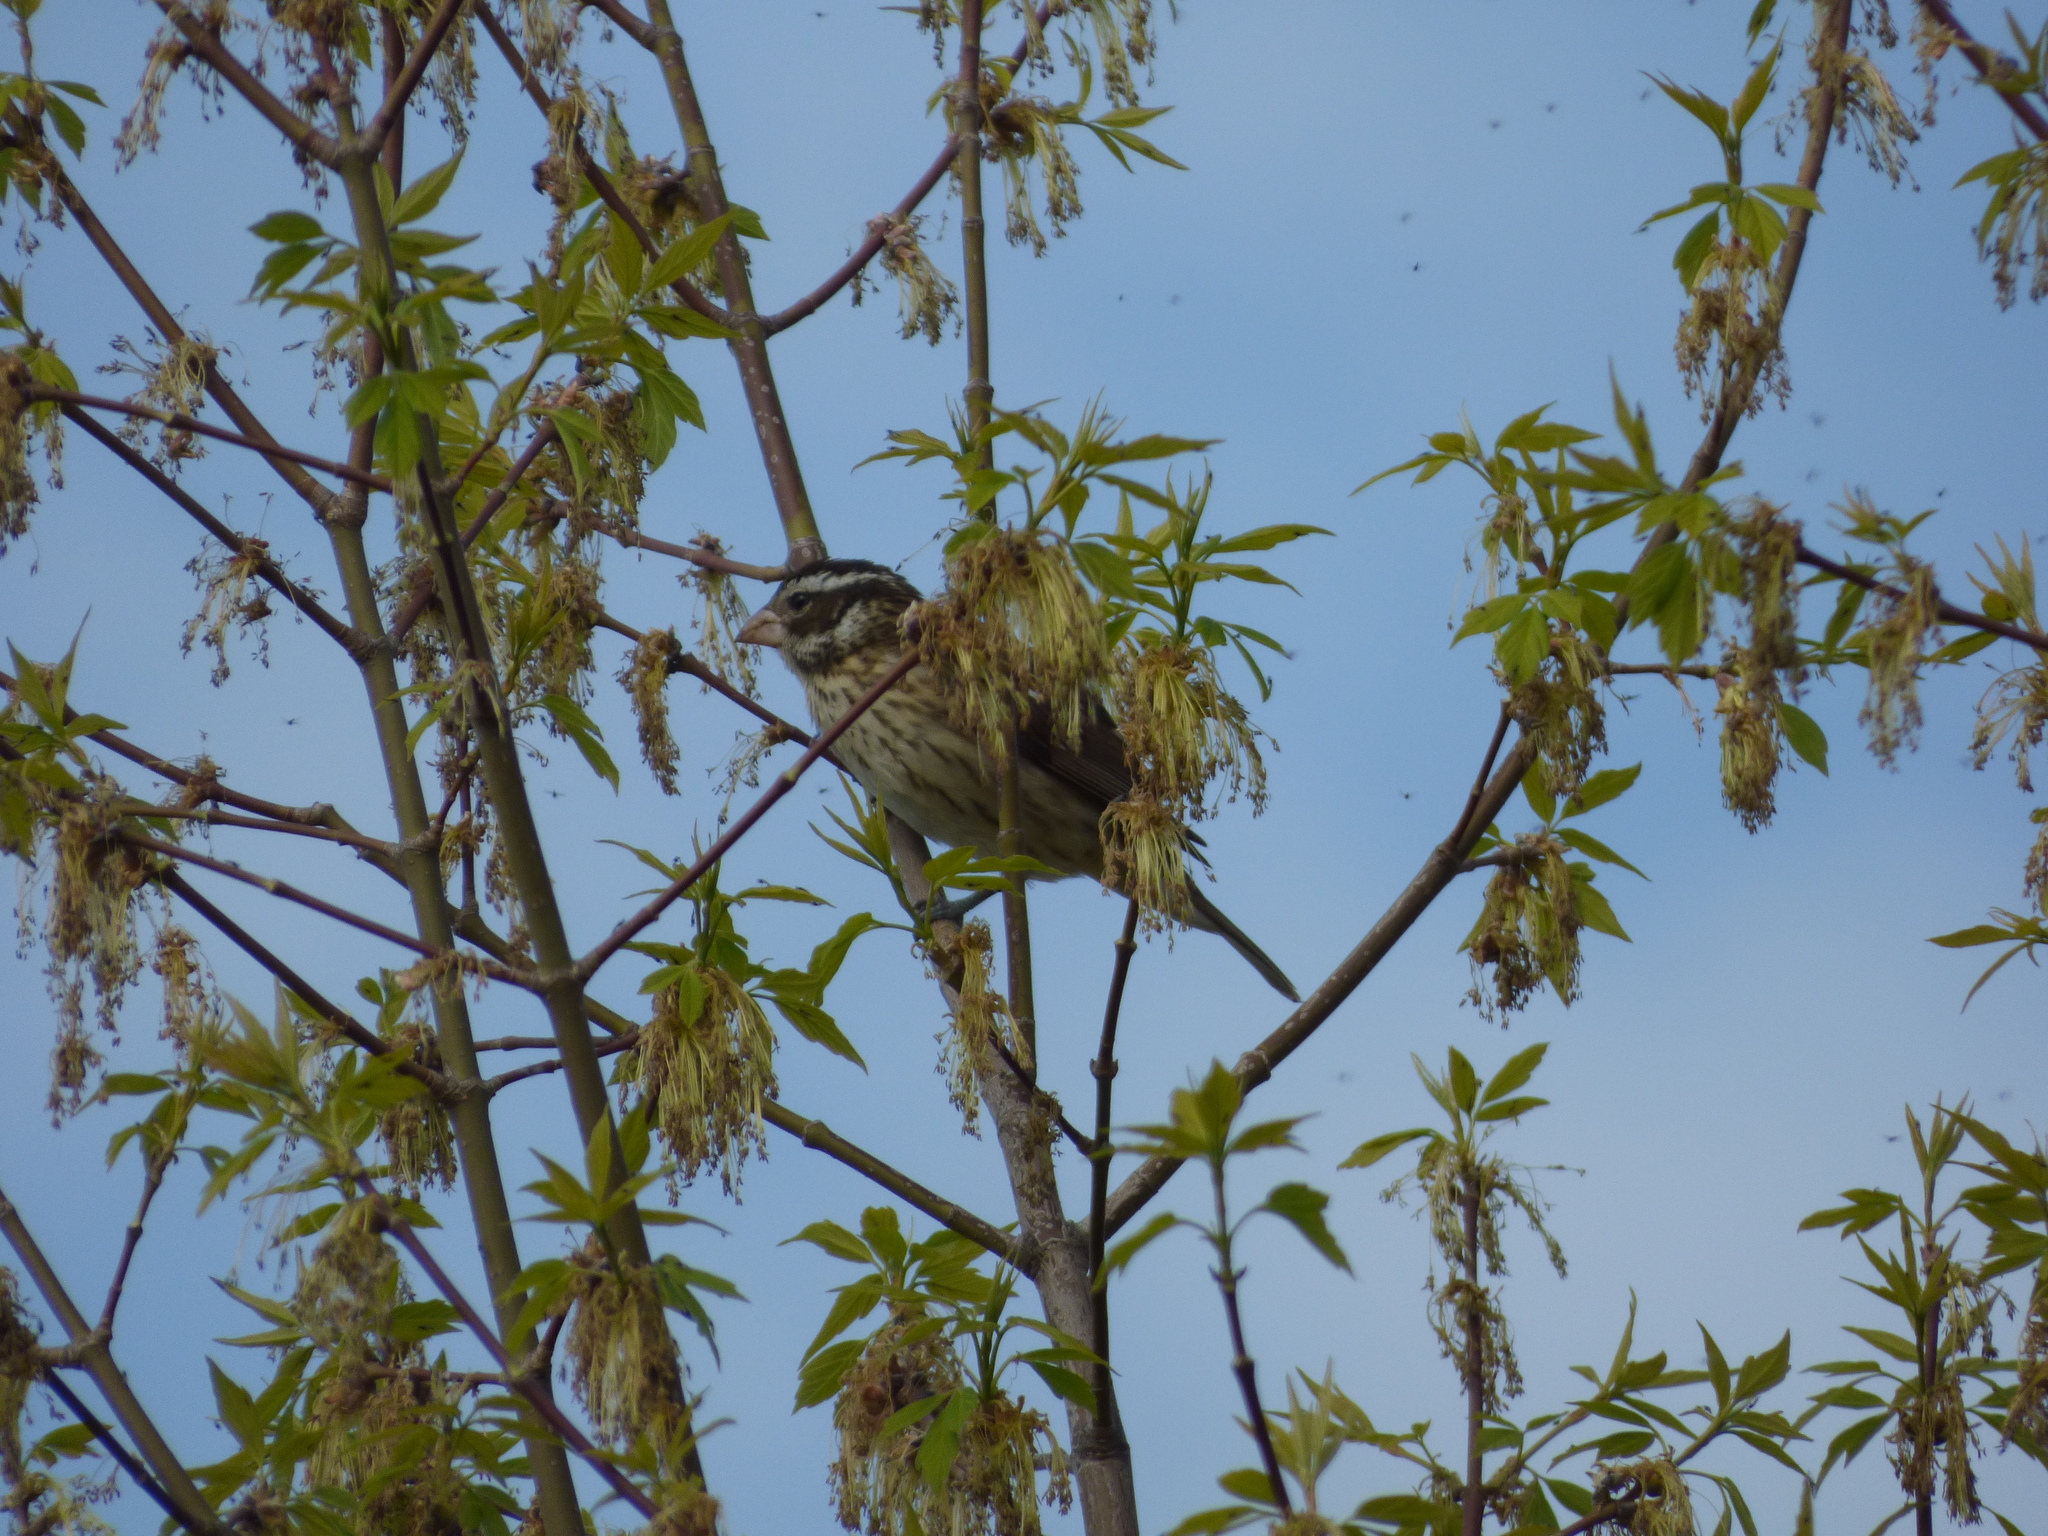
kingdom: Animalia
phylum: Chordata
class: Aves
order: Passeriformes
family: Cardinalidae
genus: Pheucticus
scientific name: Pheucticus ludovicianus
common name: Rose-breasted grosbeak
